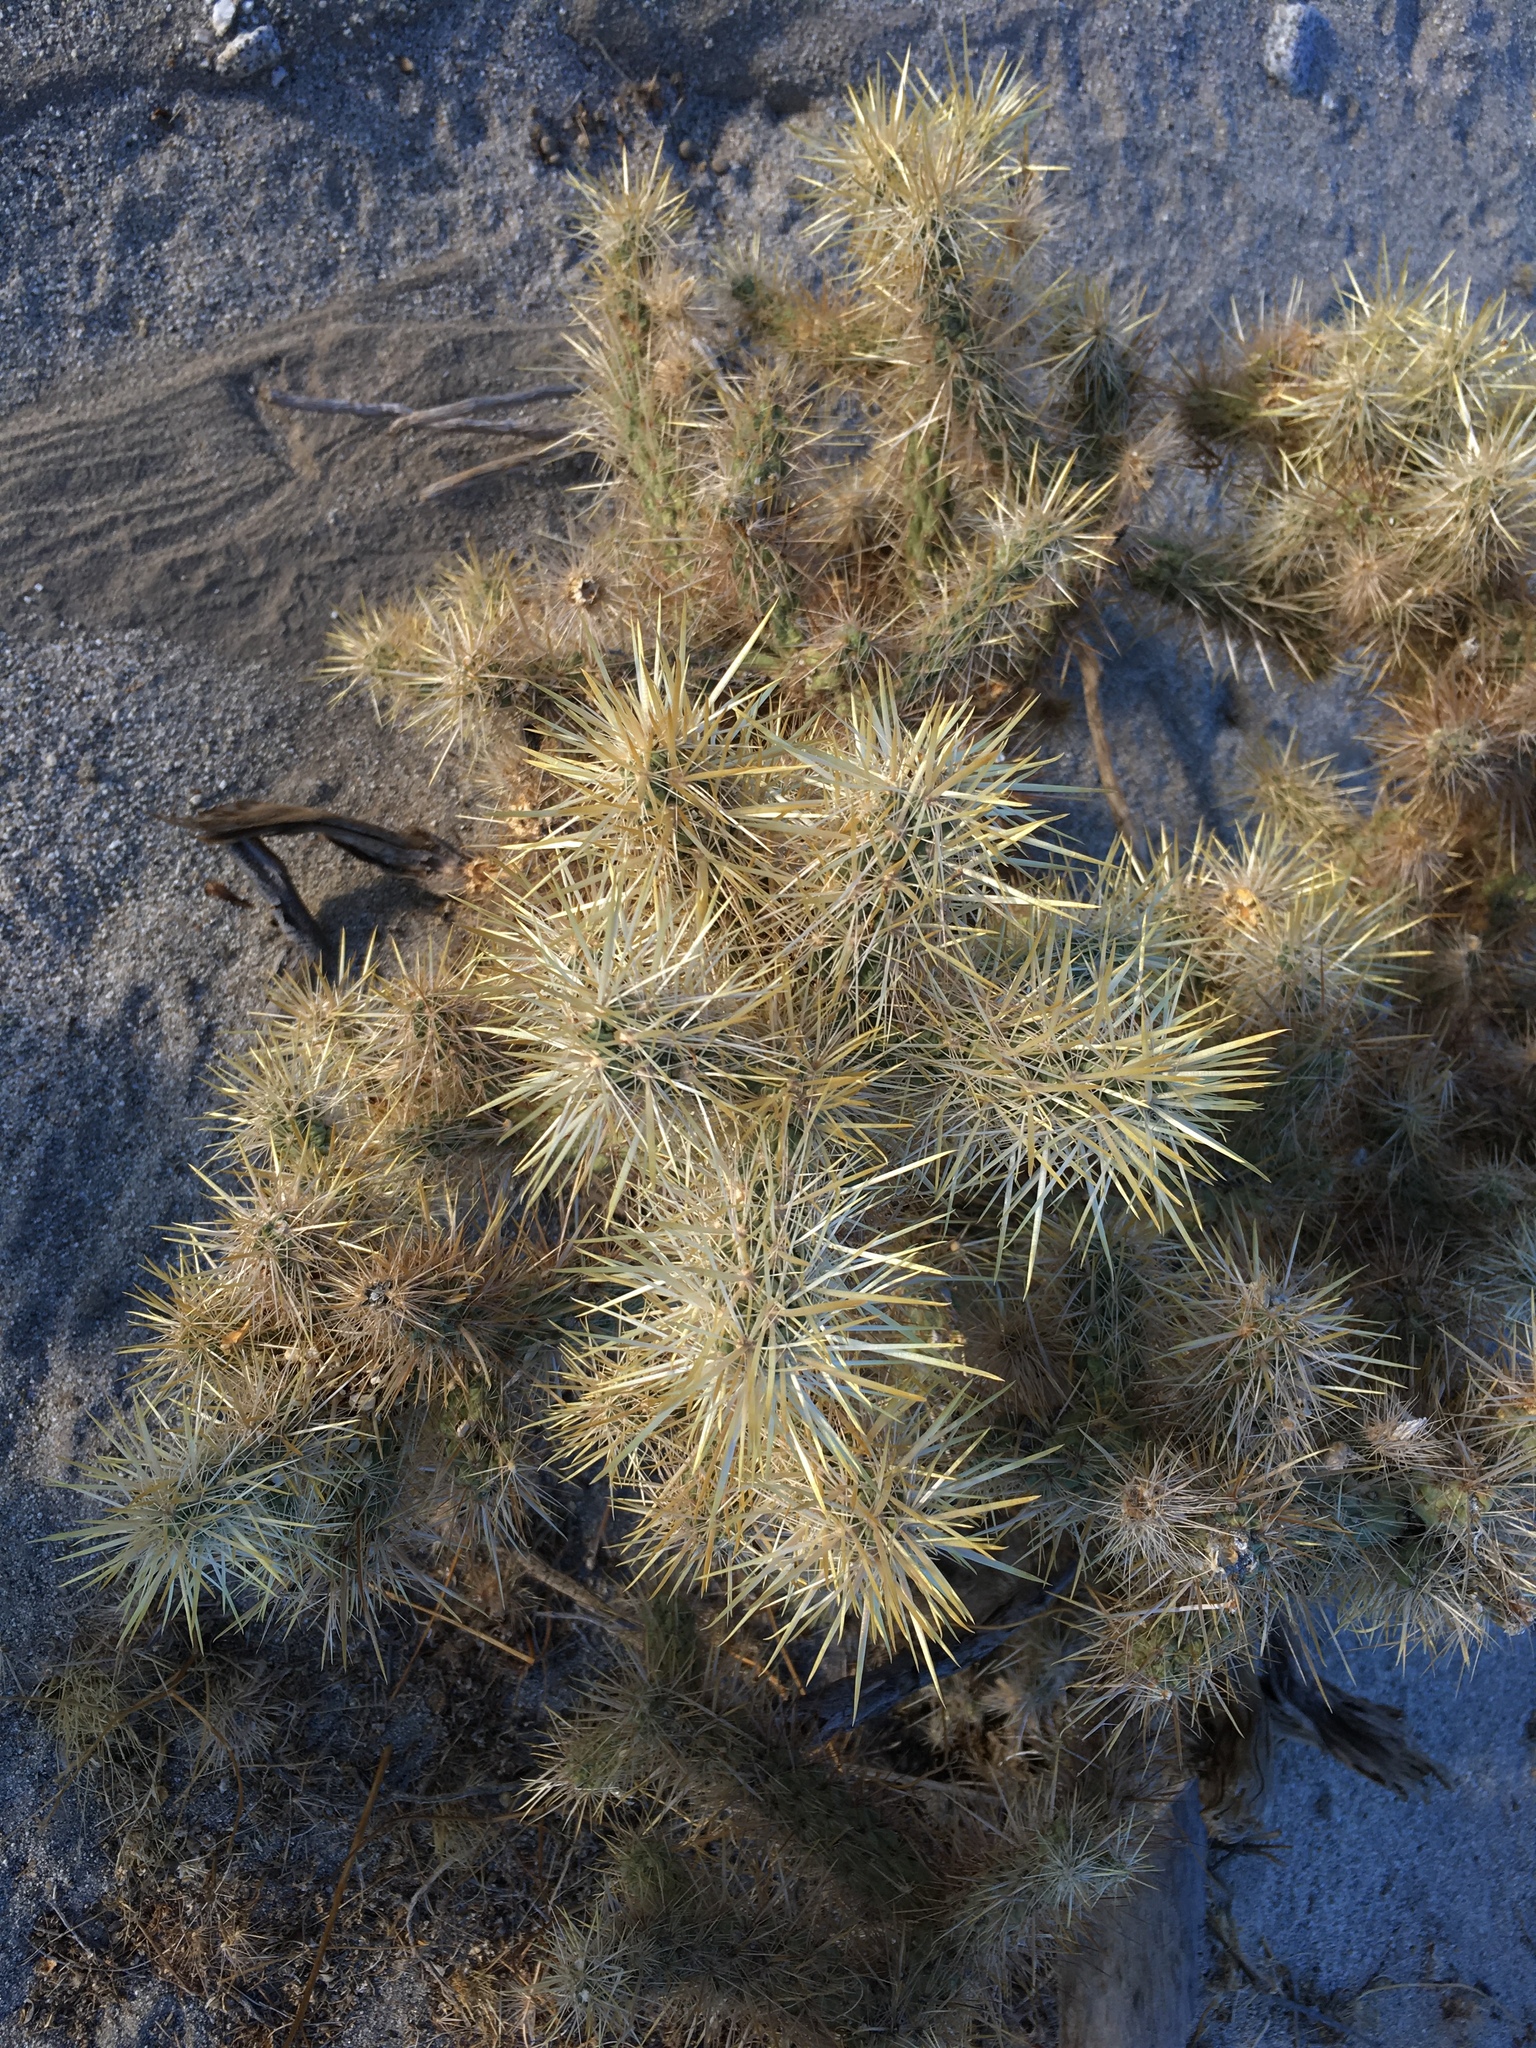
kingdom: Plantae
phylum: Tracheophyta
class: Magnoliopsida
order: Caryophyllales
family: Cactaceae
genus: Cylindropuntia
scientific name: Cylindropuntia echinocarpa
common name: Ground cholla
